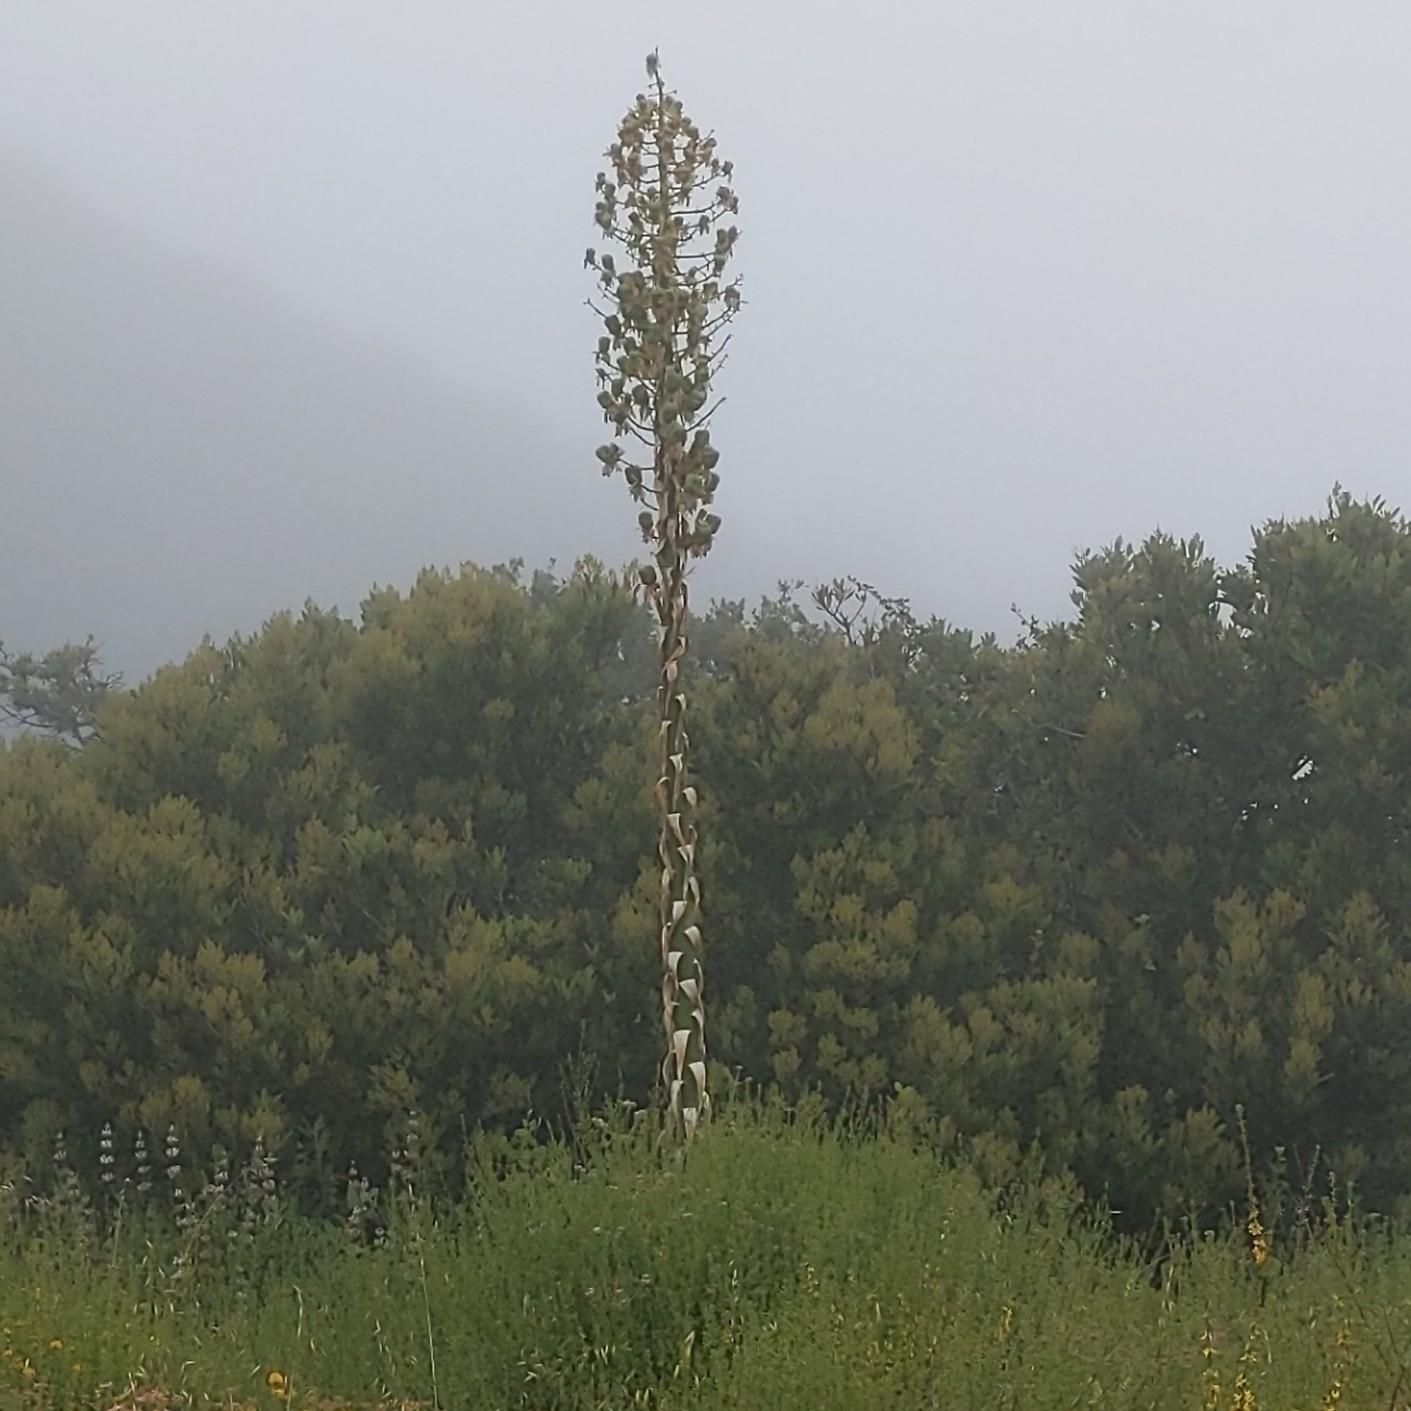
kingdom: Plantae
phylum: Tracheophyta
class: Liliopsida
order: Asparagales
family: Asparagaceae
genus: Hesperoyucca
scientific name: Hesperoyucca whipplei
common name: Our lord's-candle
